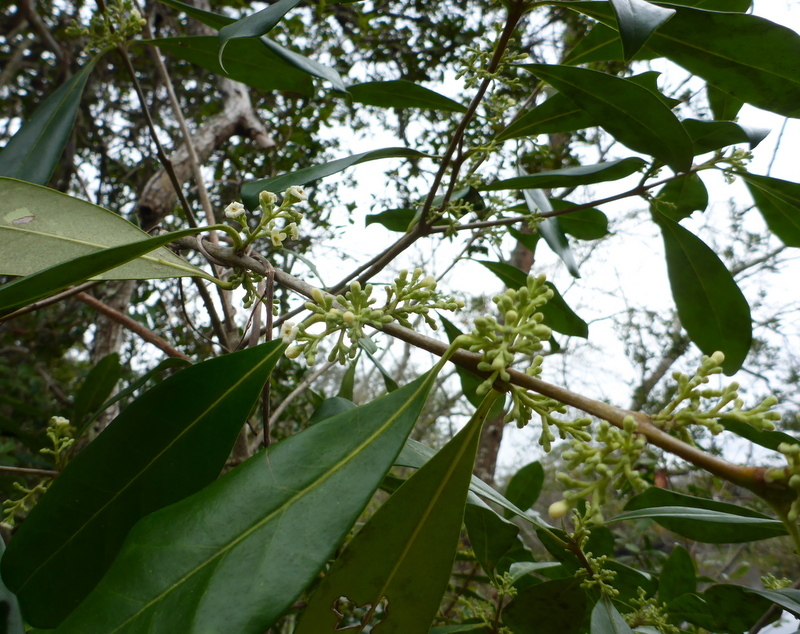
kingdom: Plantae
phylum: Tracheophyta
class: Magnoliopsida
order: Lamiales
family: Oleaceae
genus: Cartrema
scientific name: Cartrema americana
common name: Devilwood
